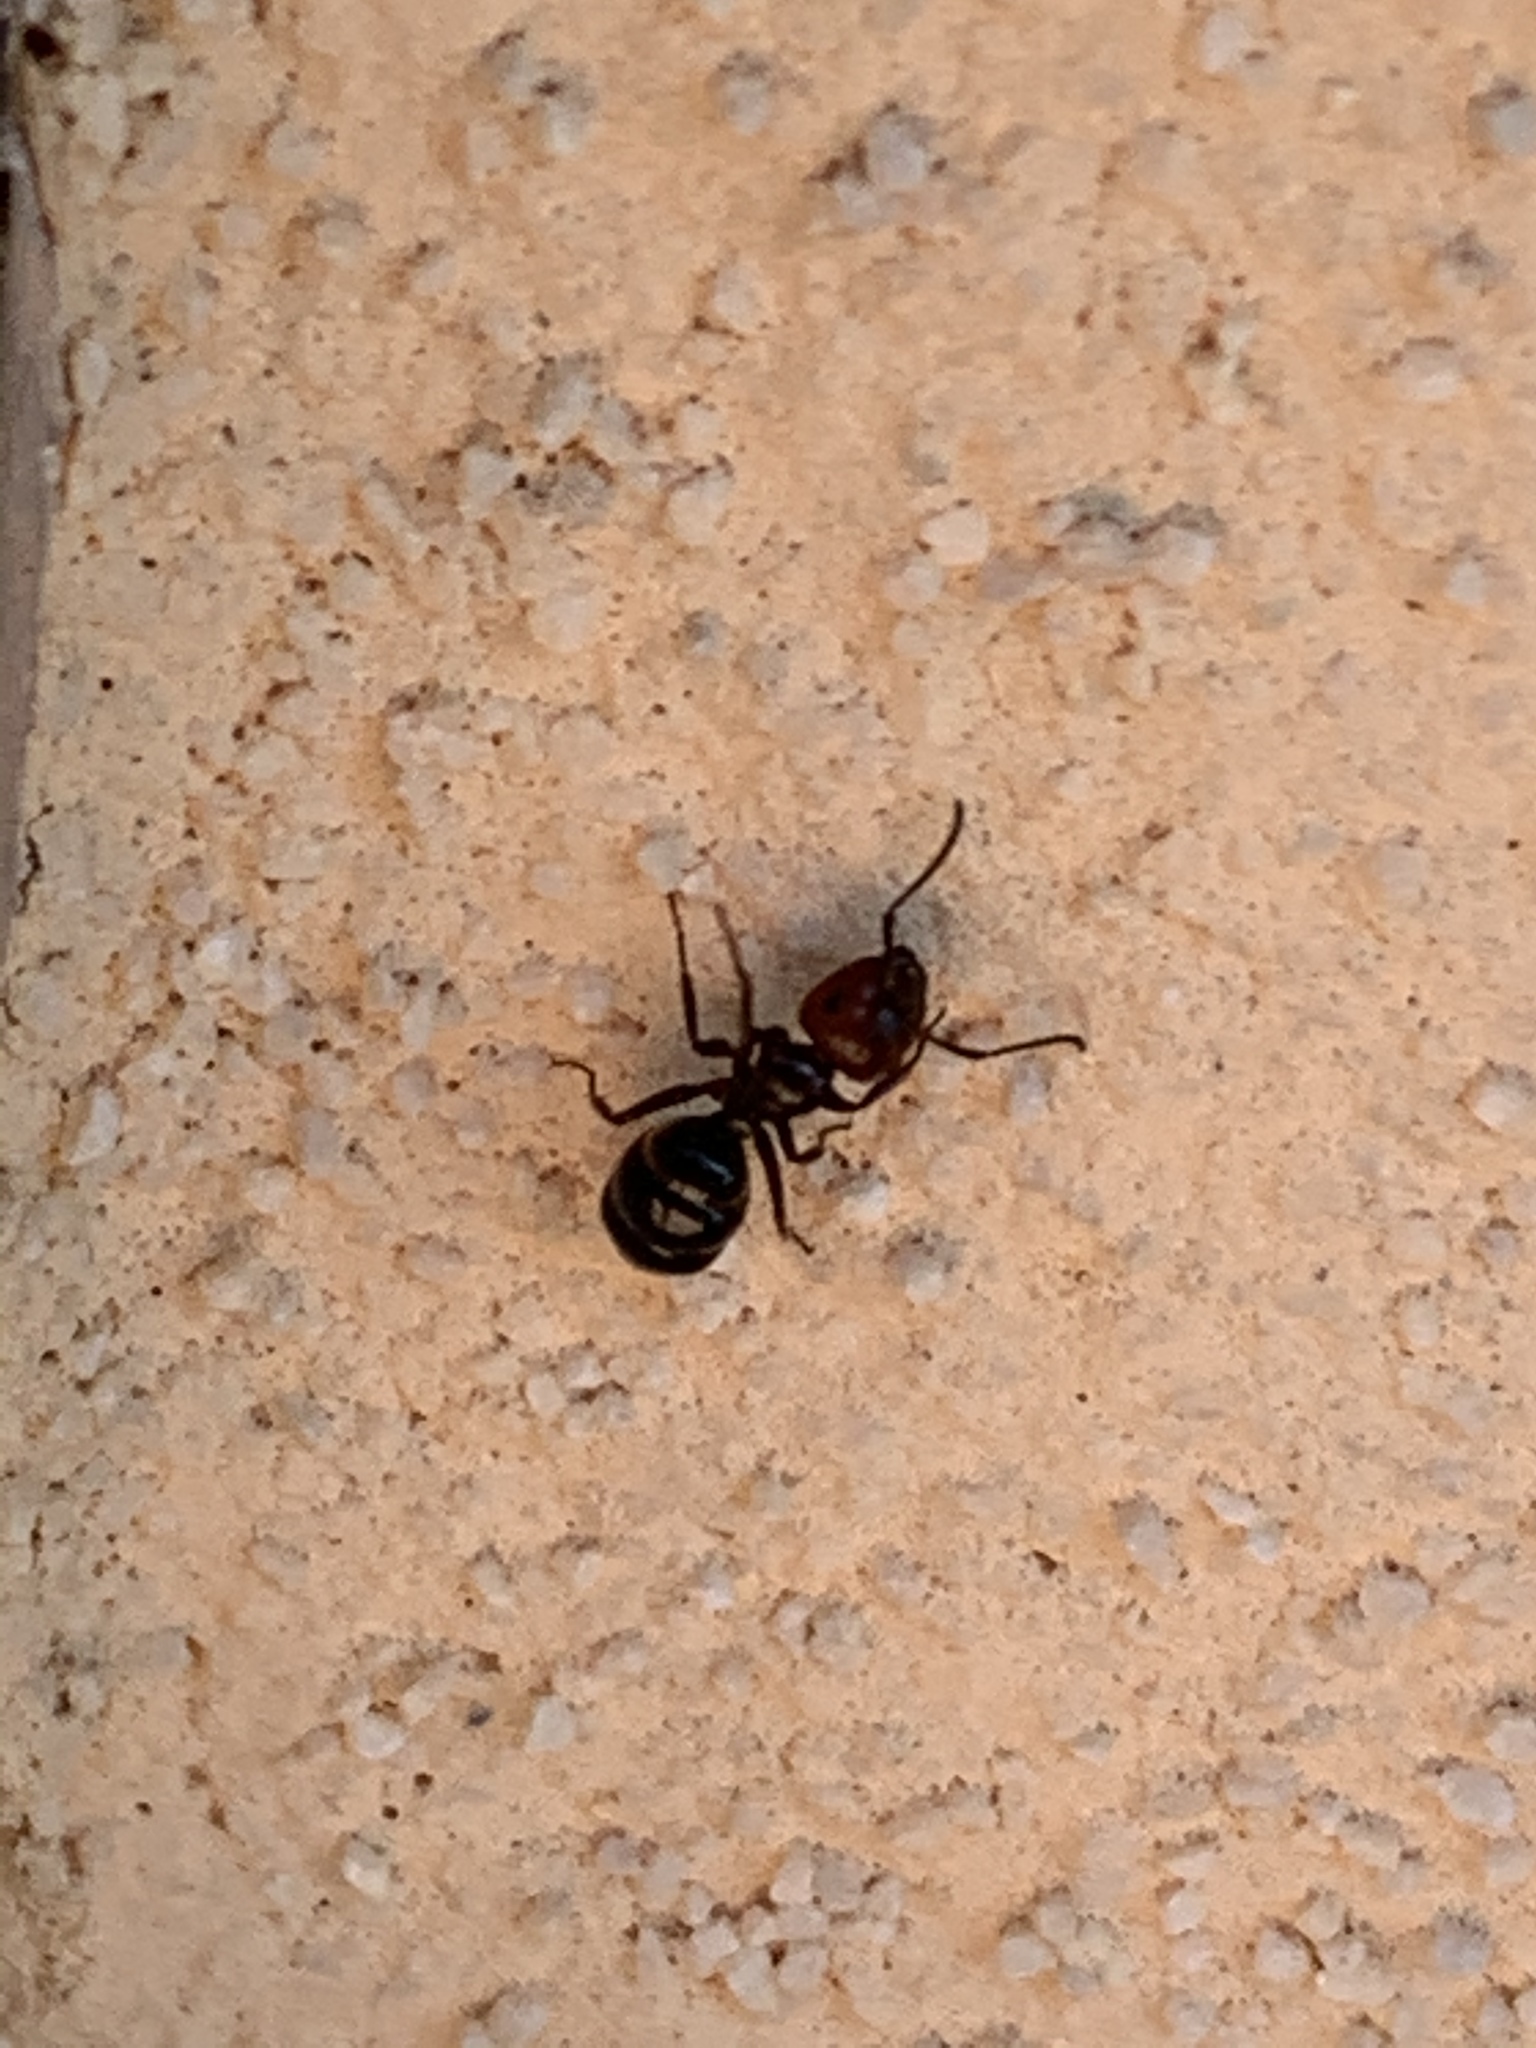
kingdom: Animalia
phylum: Arthropoda
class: Insecta
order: Hymenoptera
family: Formicidae
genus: Camponotus
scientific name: Camponotus lateralis
